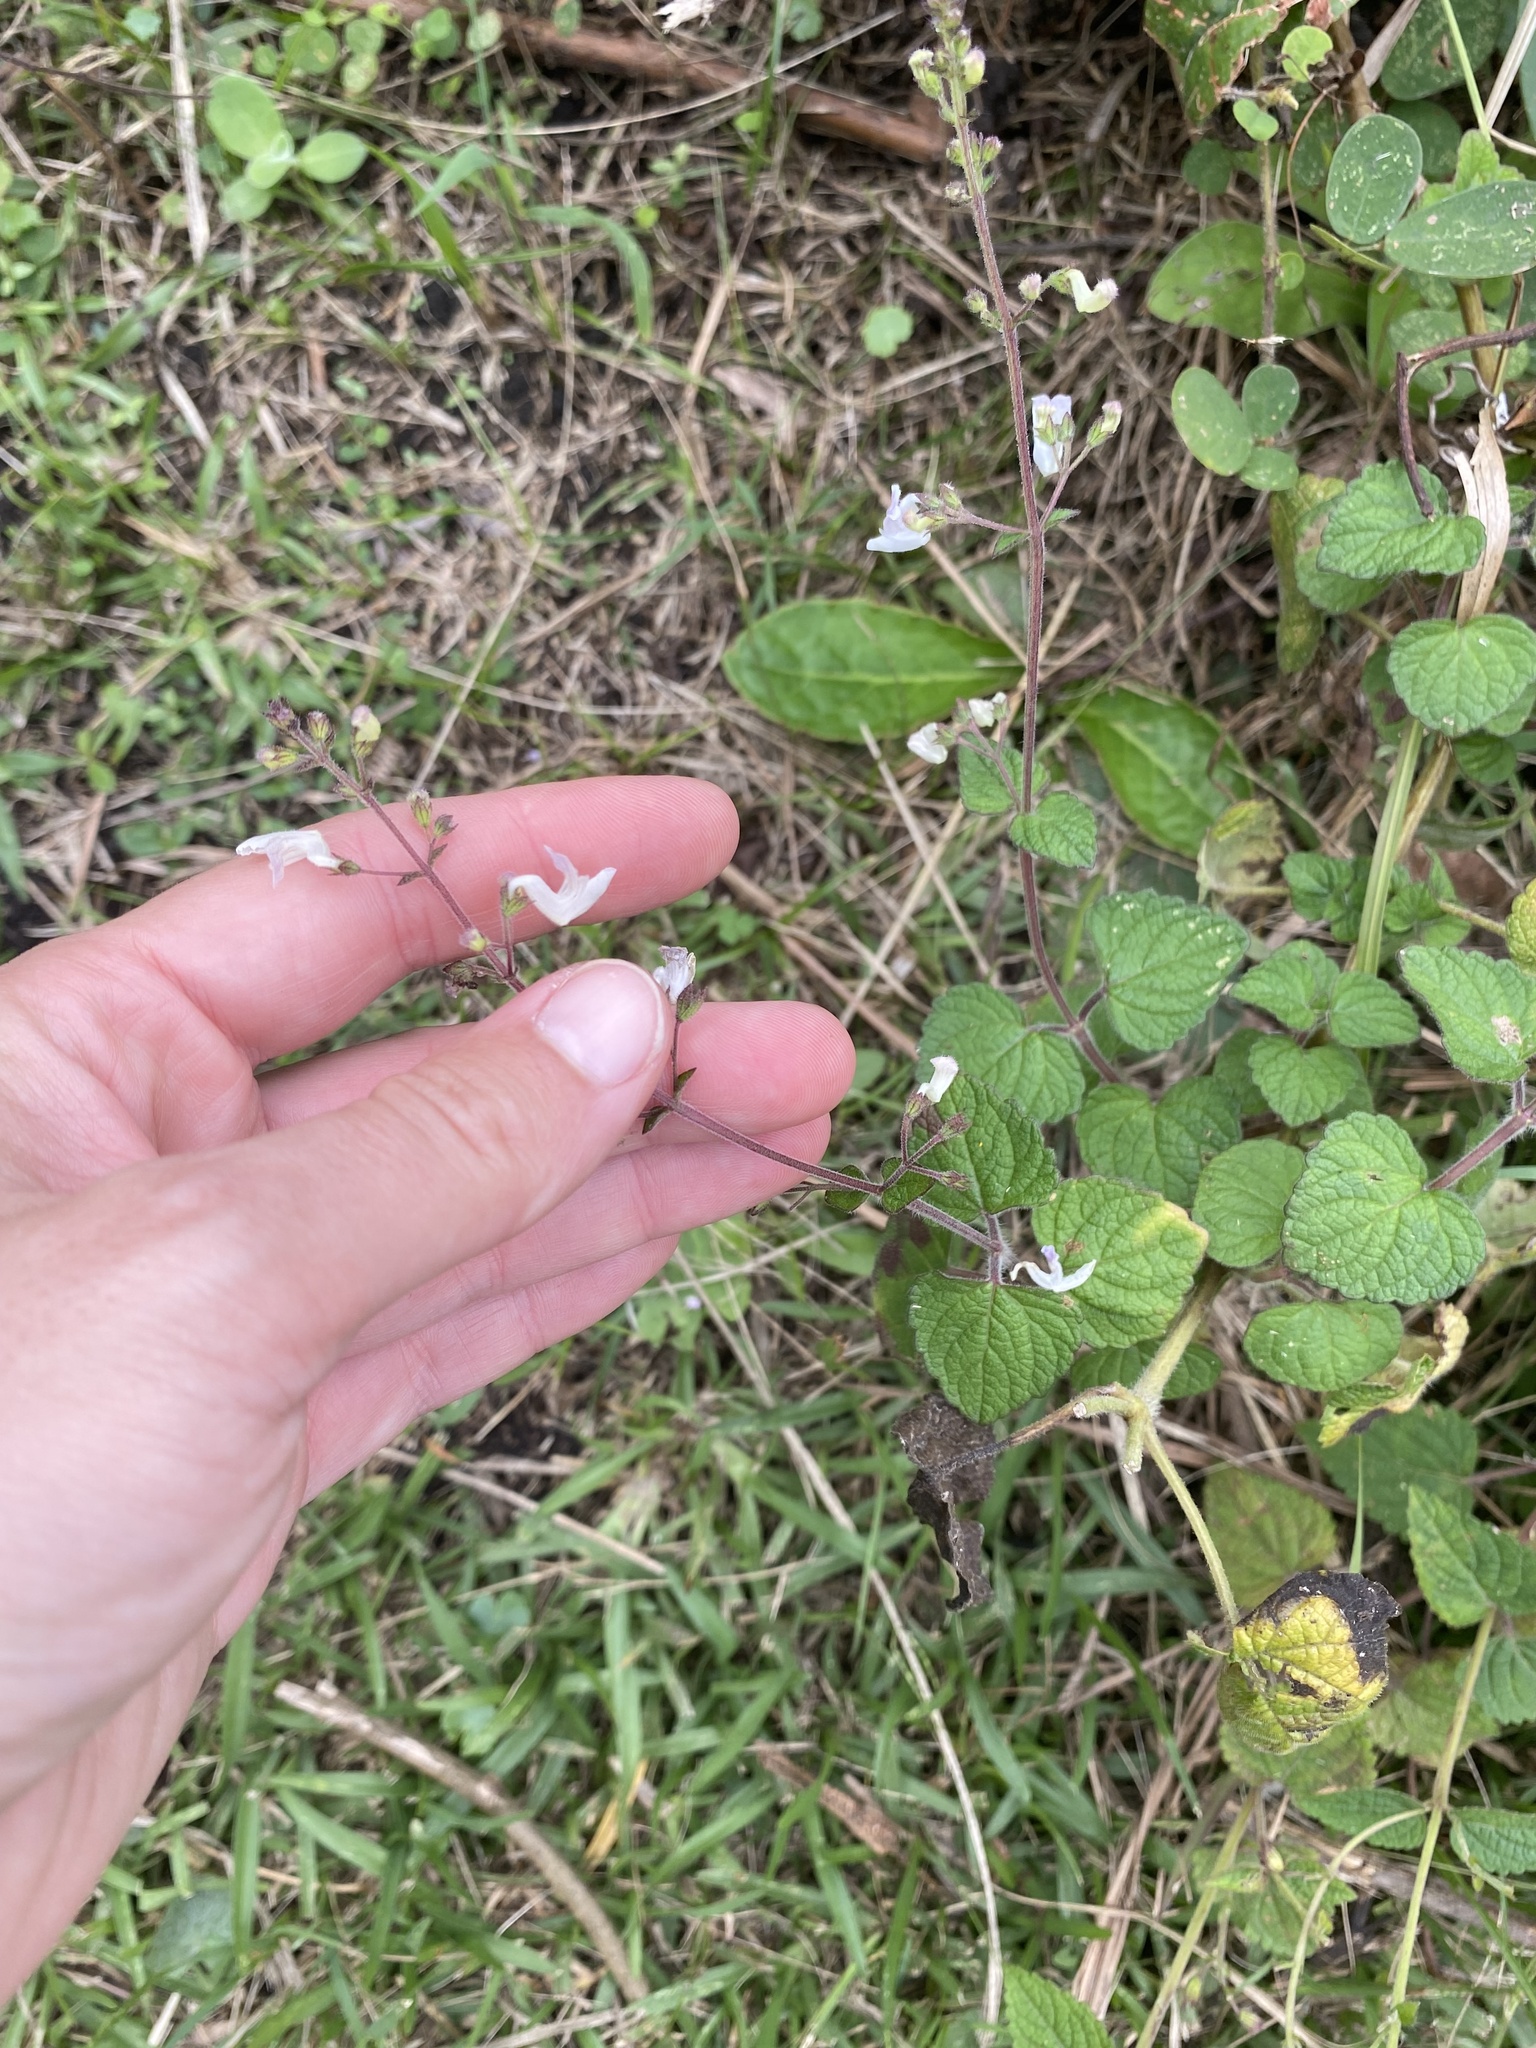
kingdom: Plantae
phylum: Tracheophyta
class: Magnoliopsida
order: Lamiales
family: Lamiaceae
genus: Equilabium
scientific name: Equilabium laxiflorum
